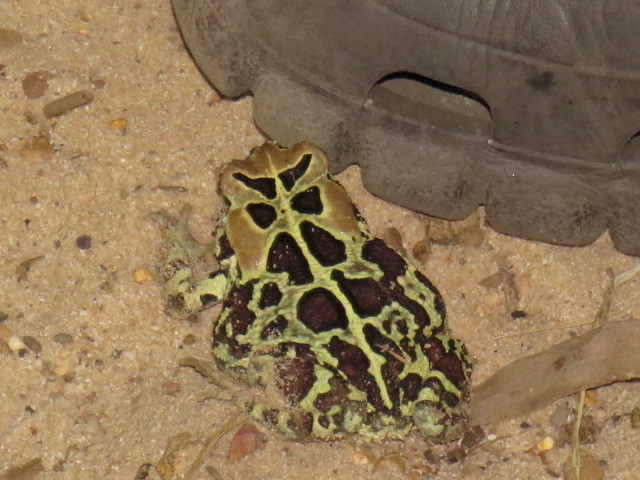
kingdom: Animalia
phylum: Chordata
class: Amphibia
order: Anura
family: Bufonidae
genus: Sclerophrys
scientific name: Sclerophrys pantherina
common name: Panther toad
